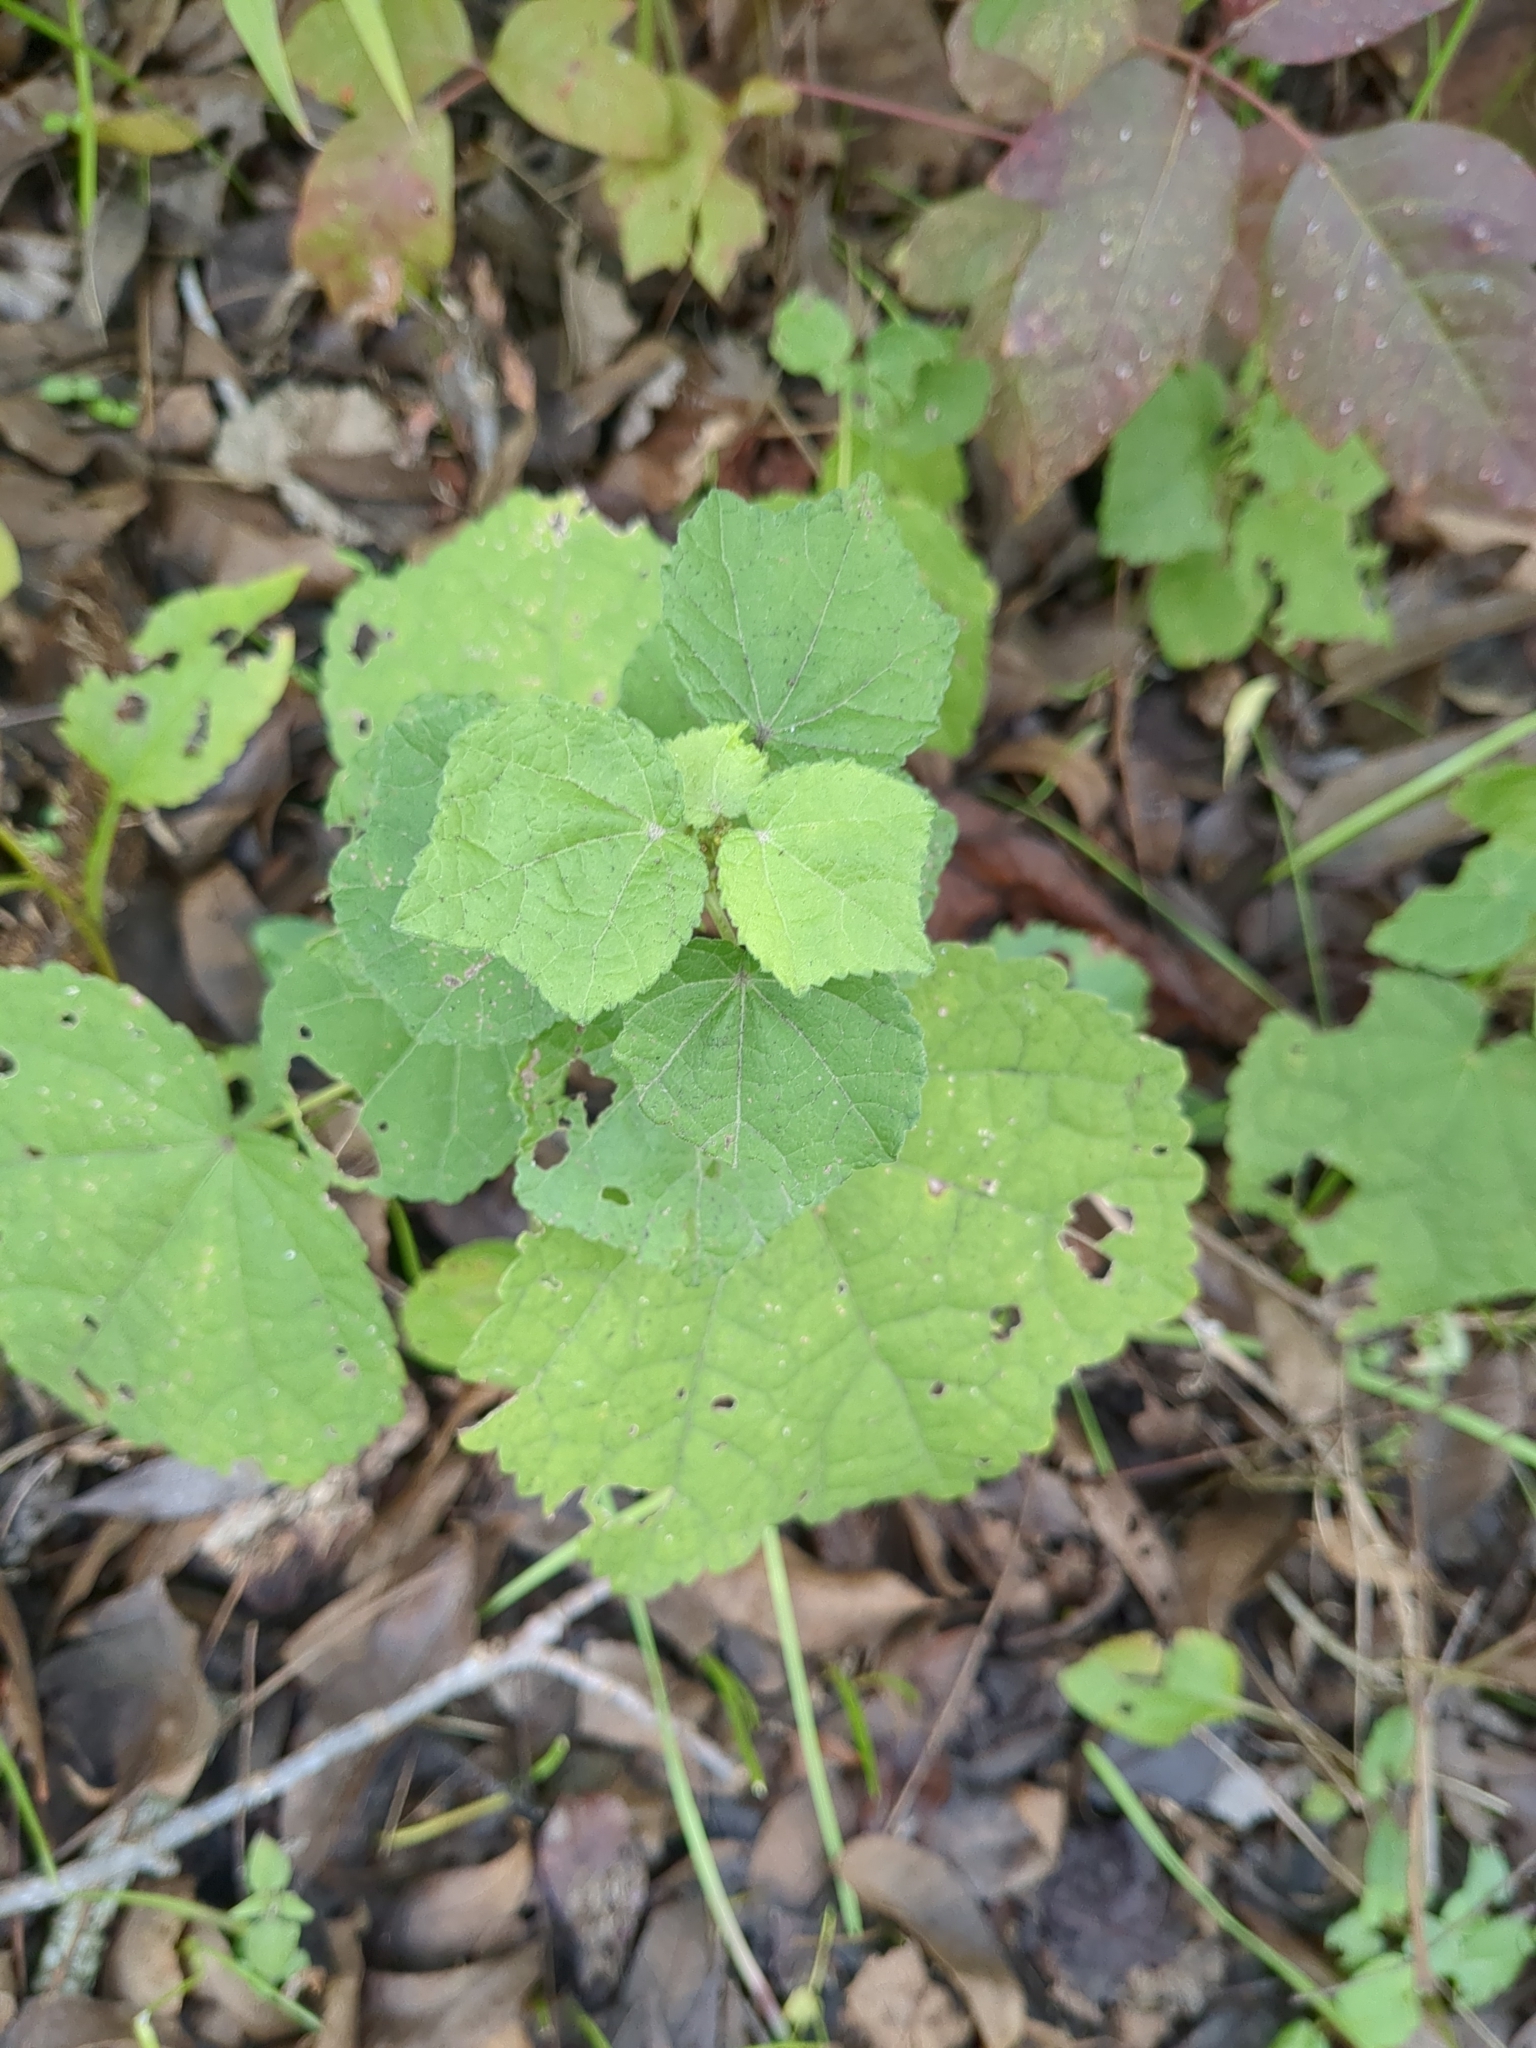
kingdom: Plantae
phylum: Tracheophyta
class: Magnoliopsida
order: Malvales
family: Malvaceae
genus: Malvaviscus
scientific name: Malvaviscus arboreus
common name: Wax mallow
